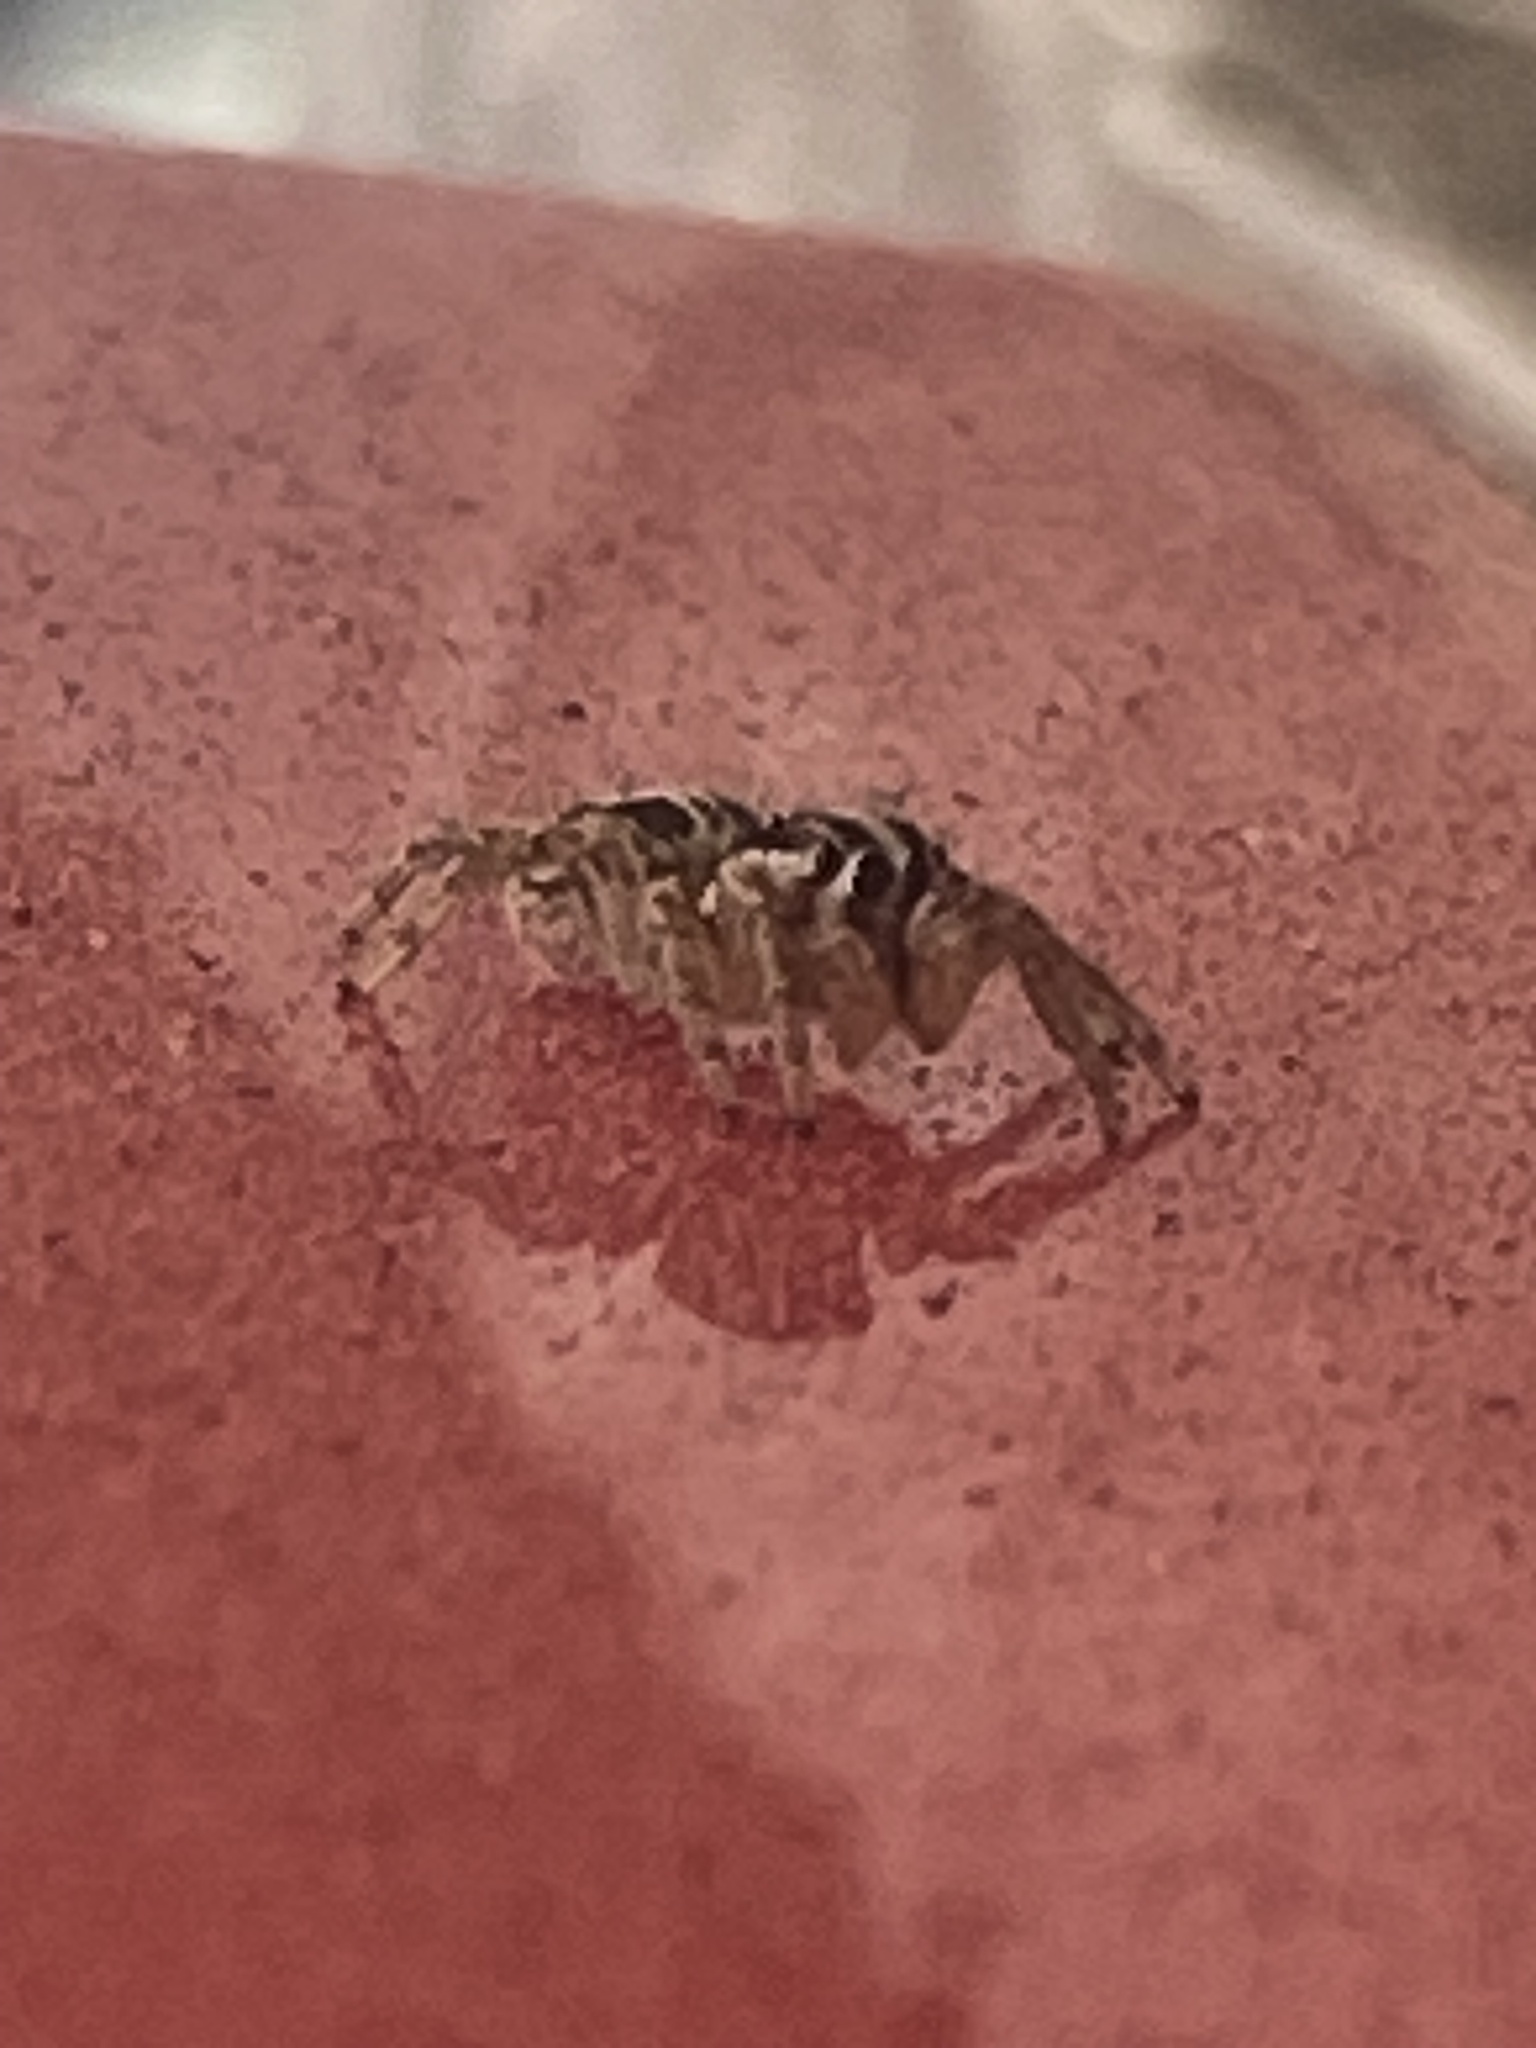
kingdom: Animalia
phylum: Arthropoda
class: Arachnida
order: Araneae
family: Salticidae
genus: Plexippus
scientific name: Plexippus paykulli
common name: Pantropical jumper
